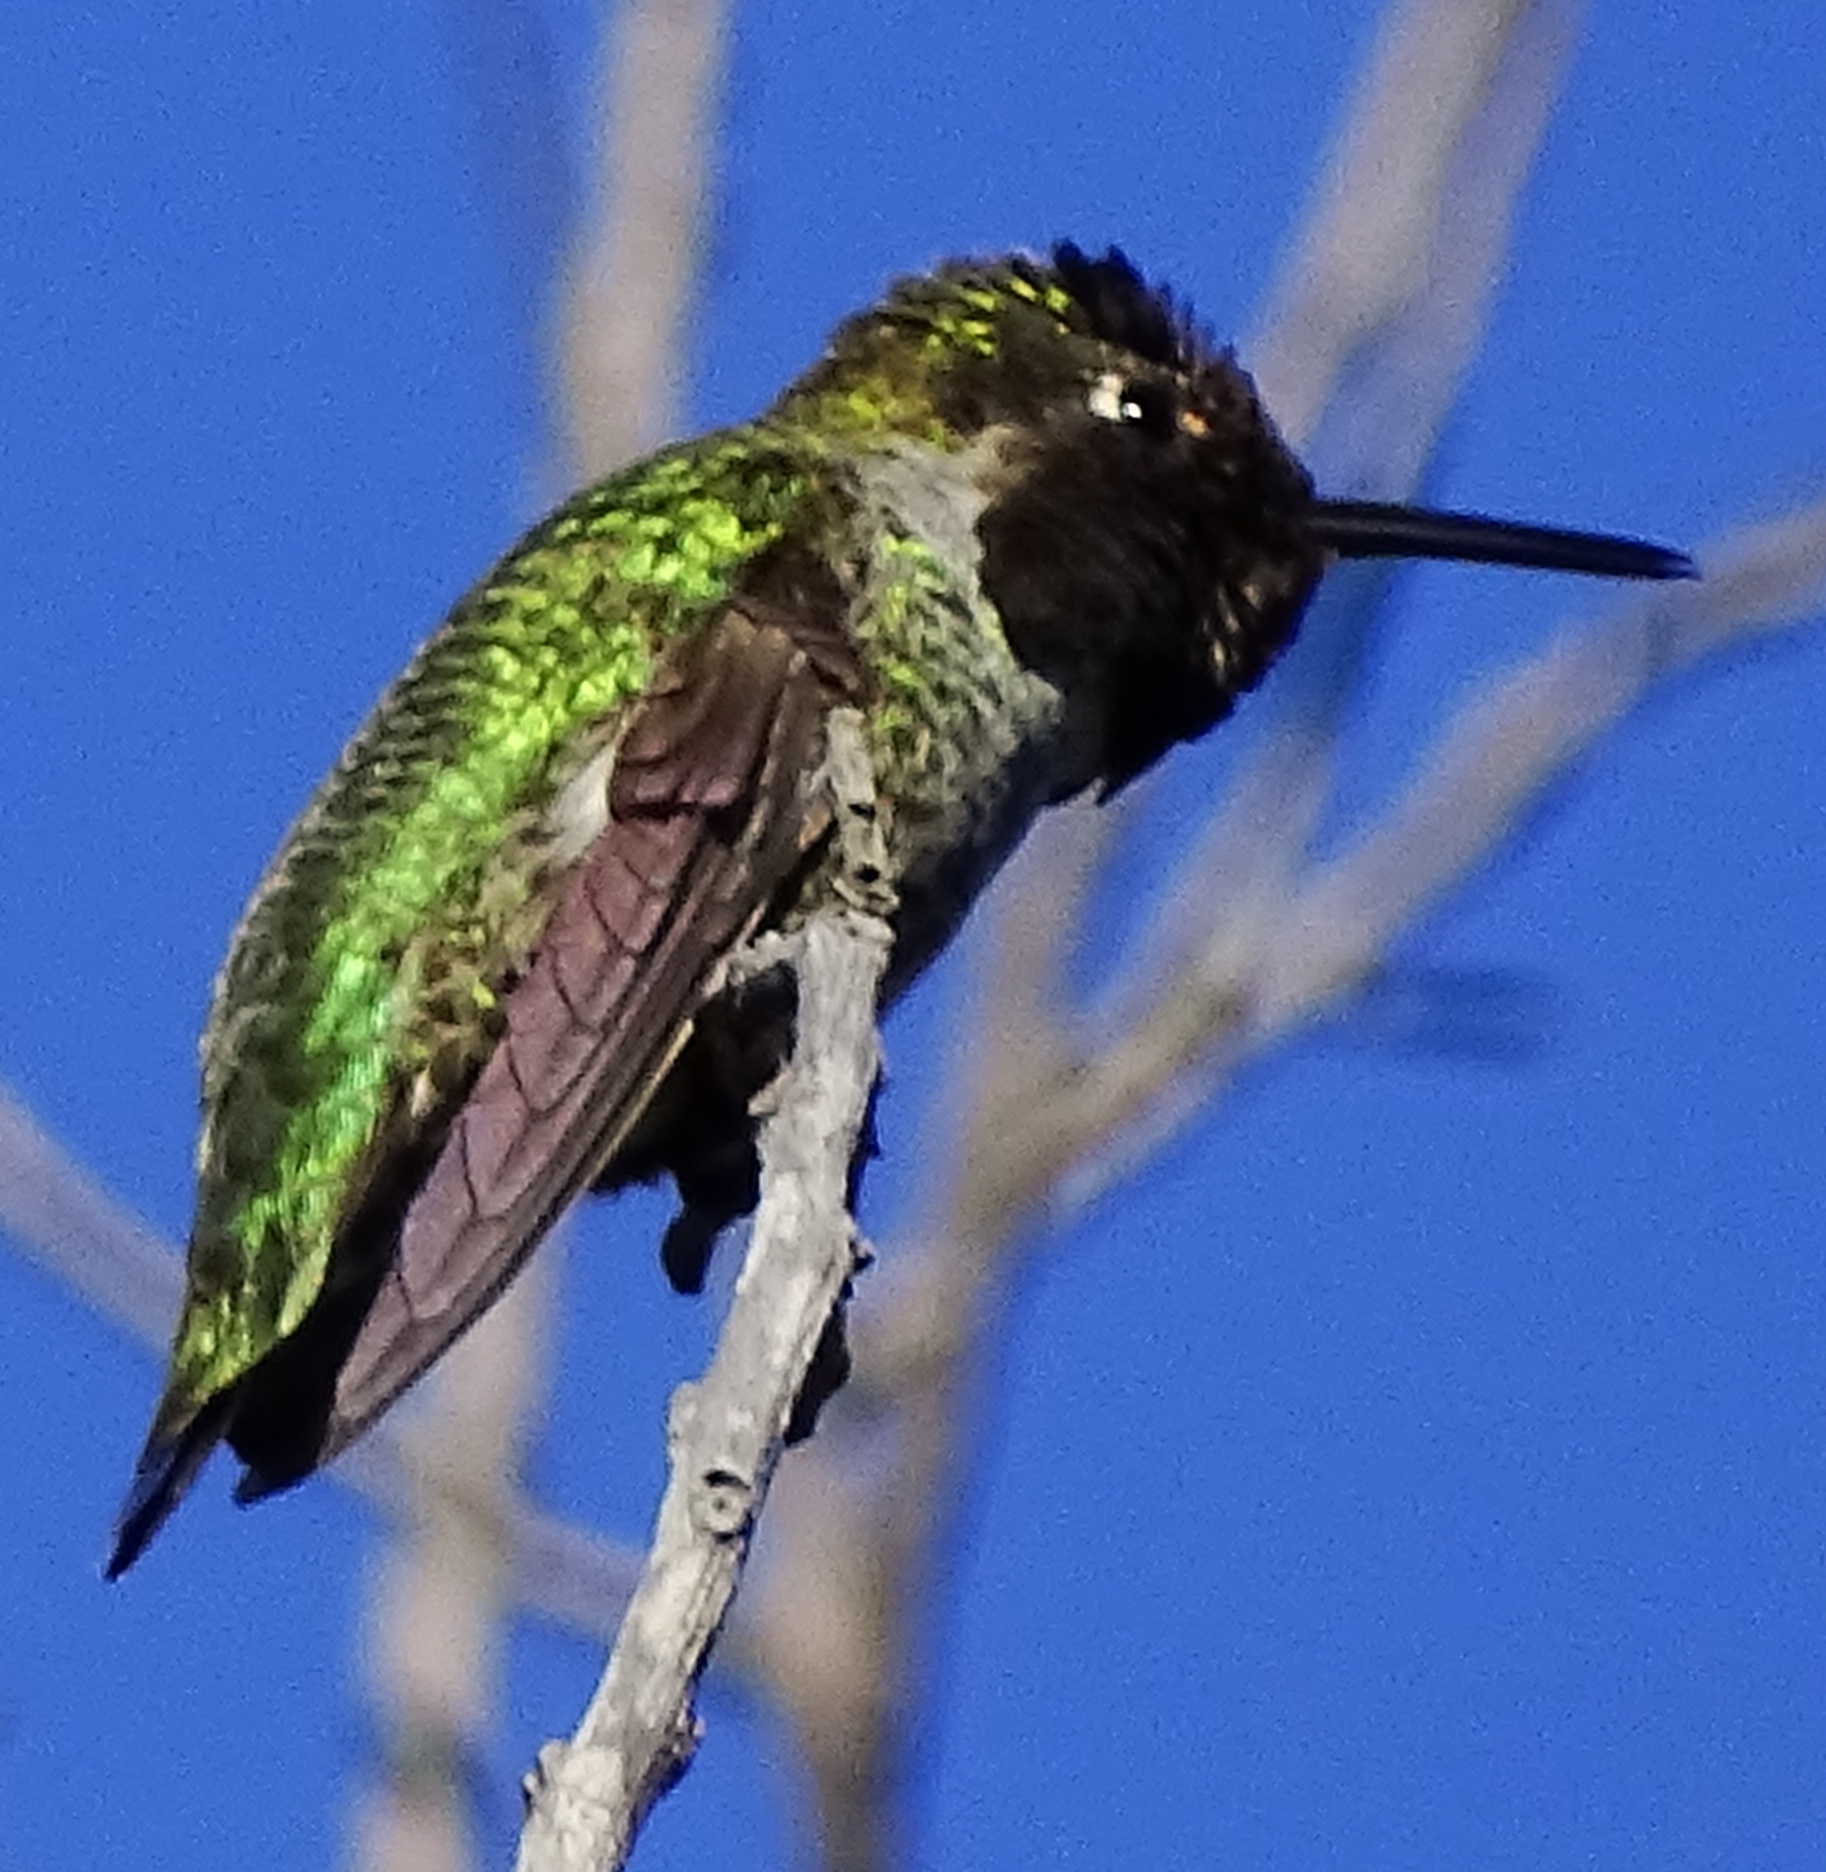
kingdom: Animalia
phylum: Chordata
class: Aves
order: Apodiformes
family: Trochilidae
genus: Calypte
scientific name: Calypte anna
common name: Anna's hummingbird
